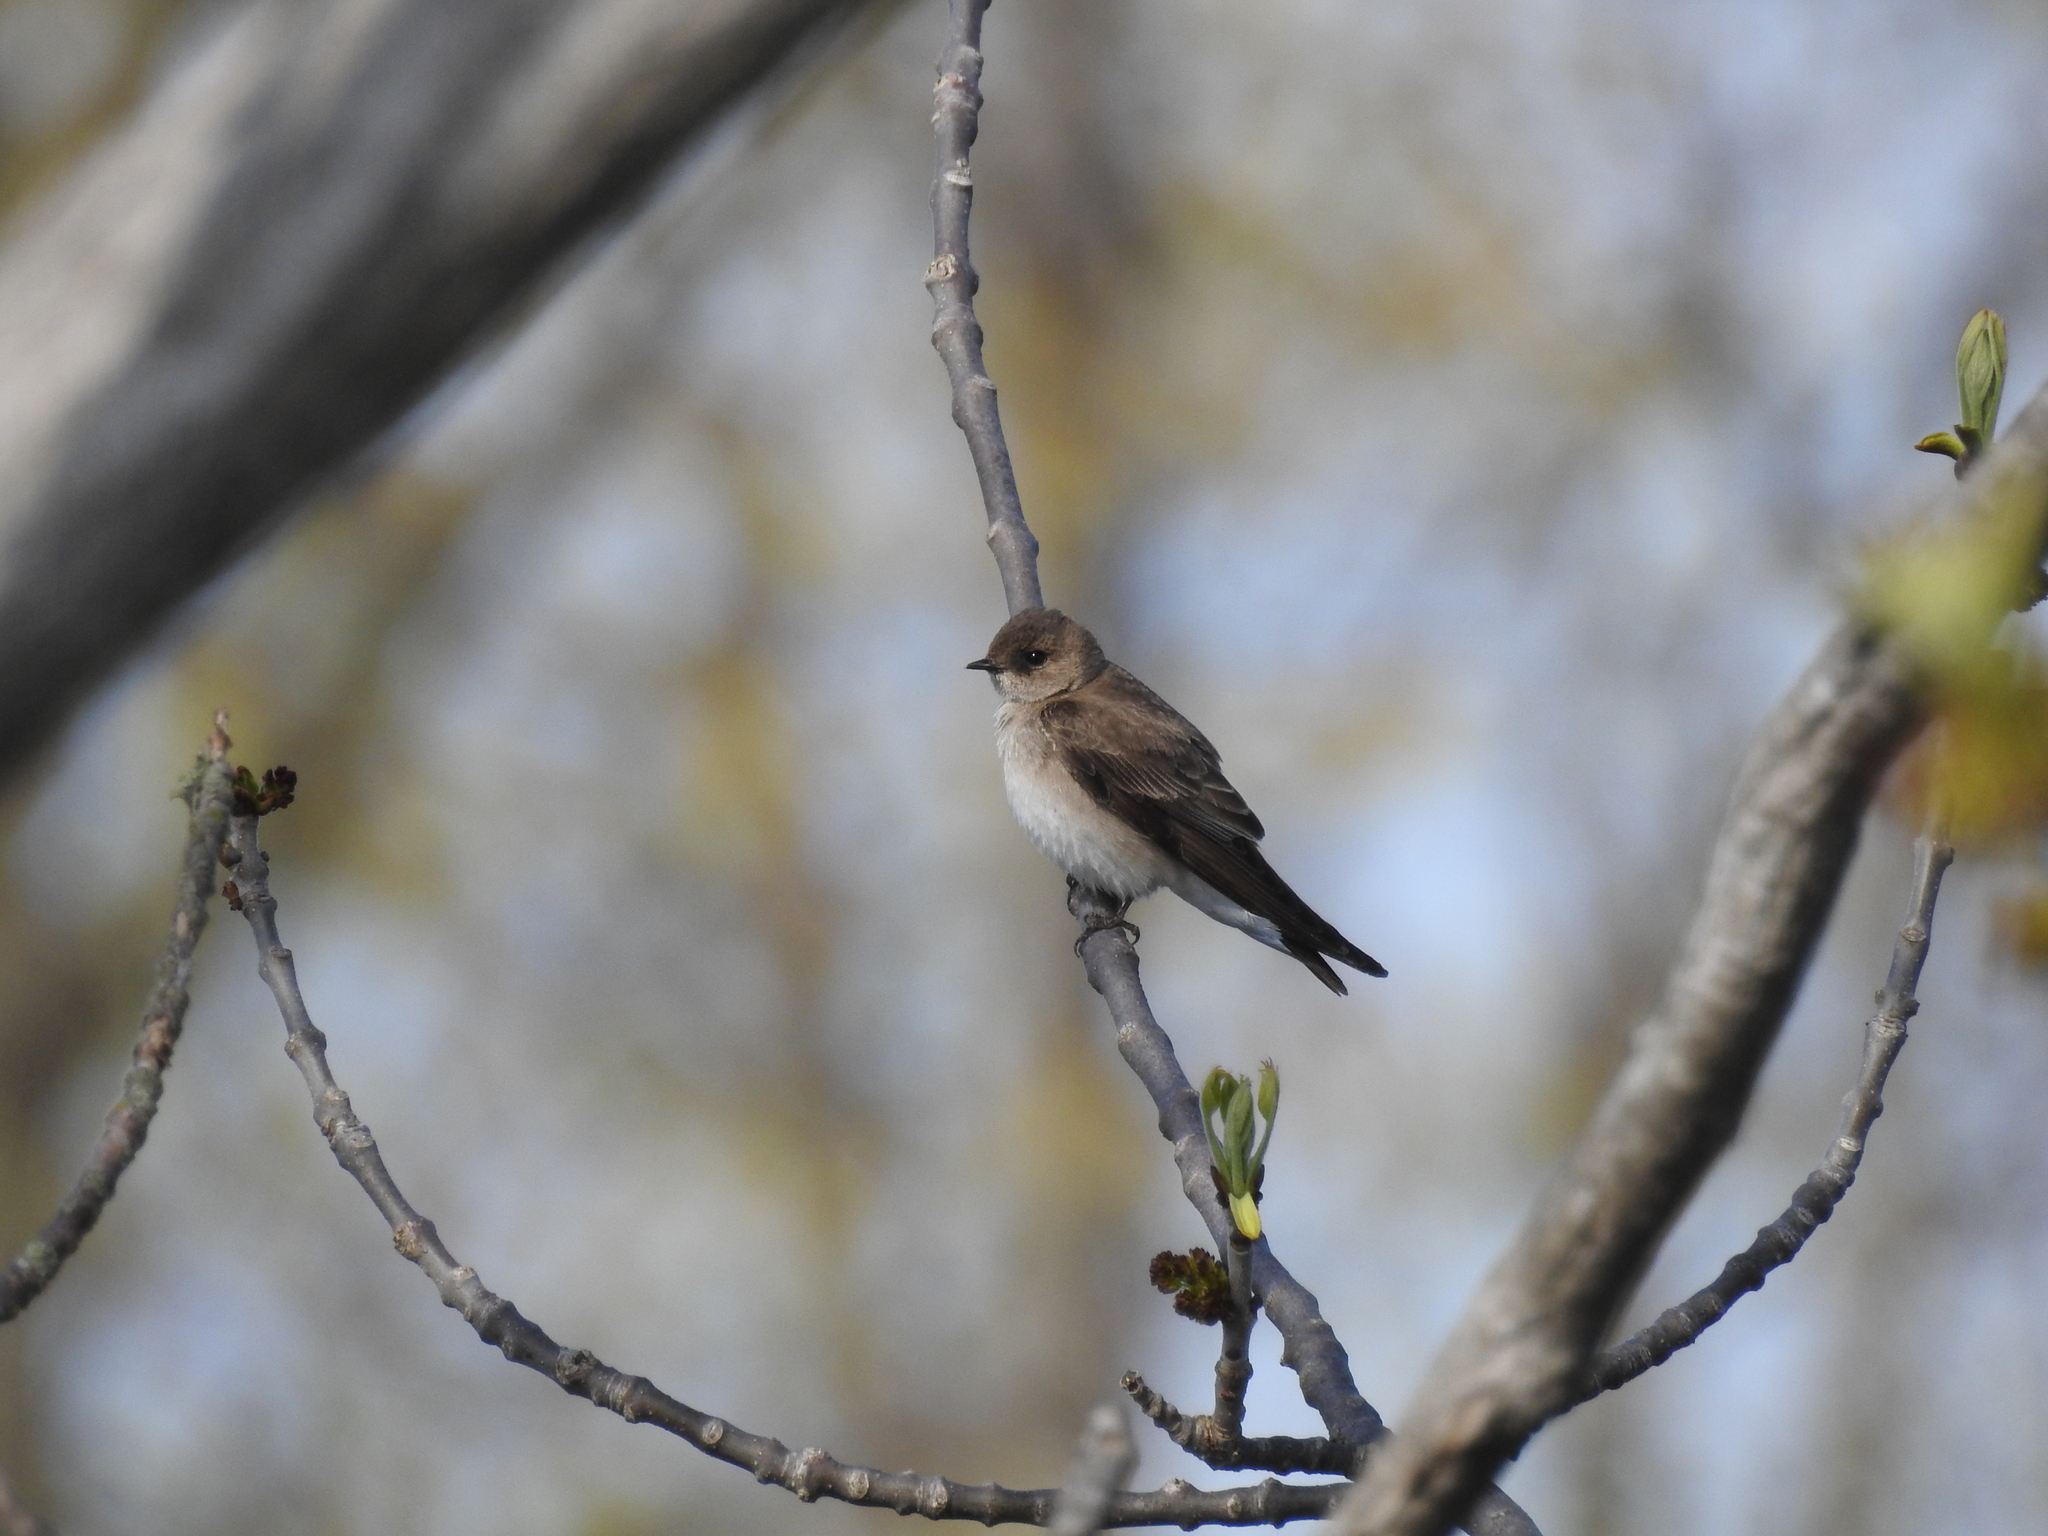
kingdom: Animalia
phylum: Chordata
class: Aves
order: Passeriformes
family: Hirundinidae
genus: Stelgidopteryx
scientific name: Stelgidopteryx serripennis
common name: Northern rough-winged swallow
